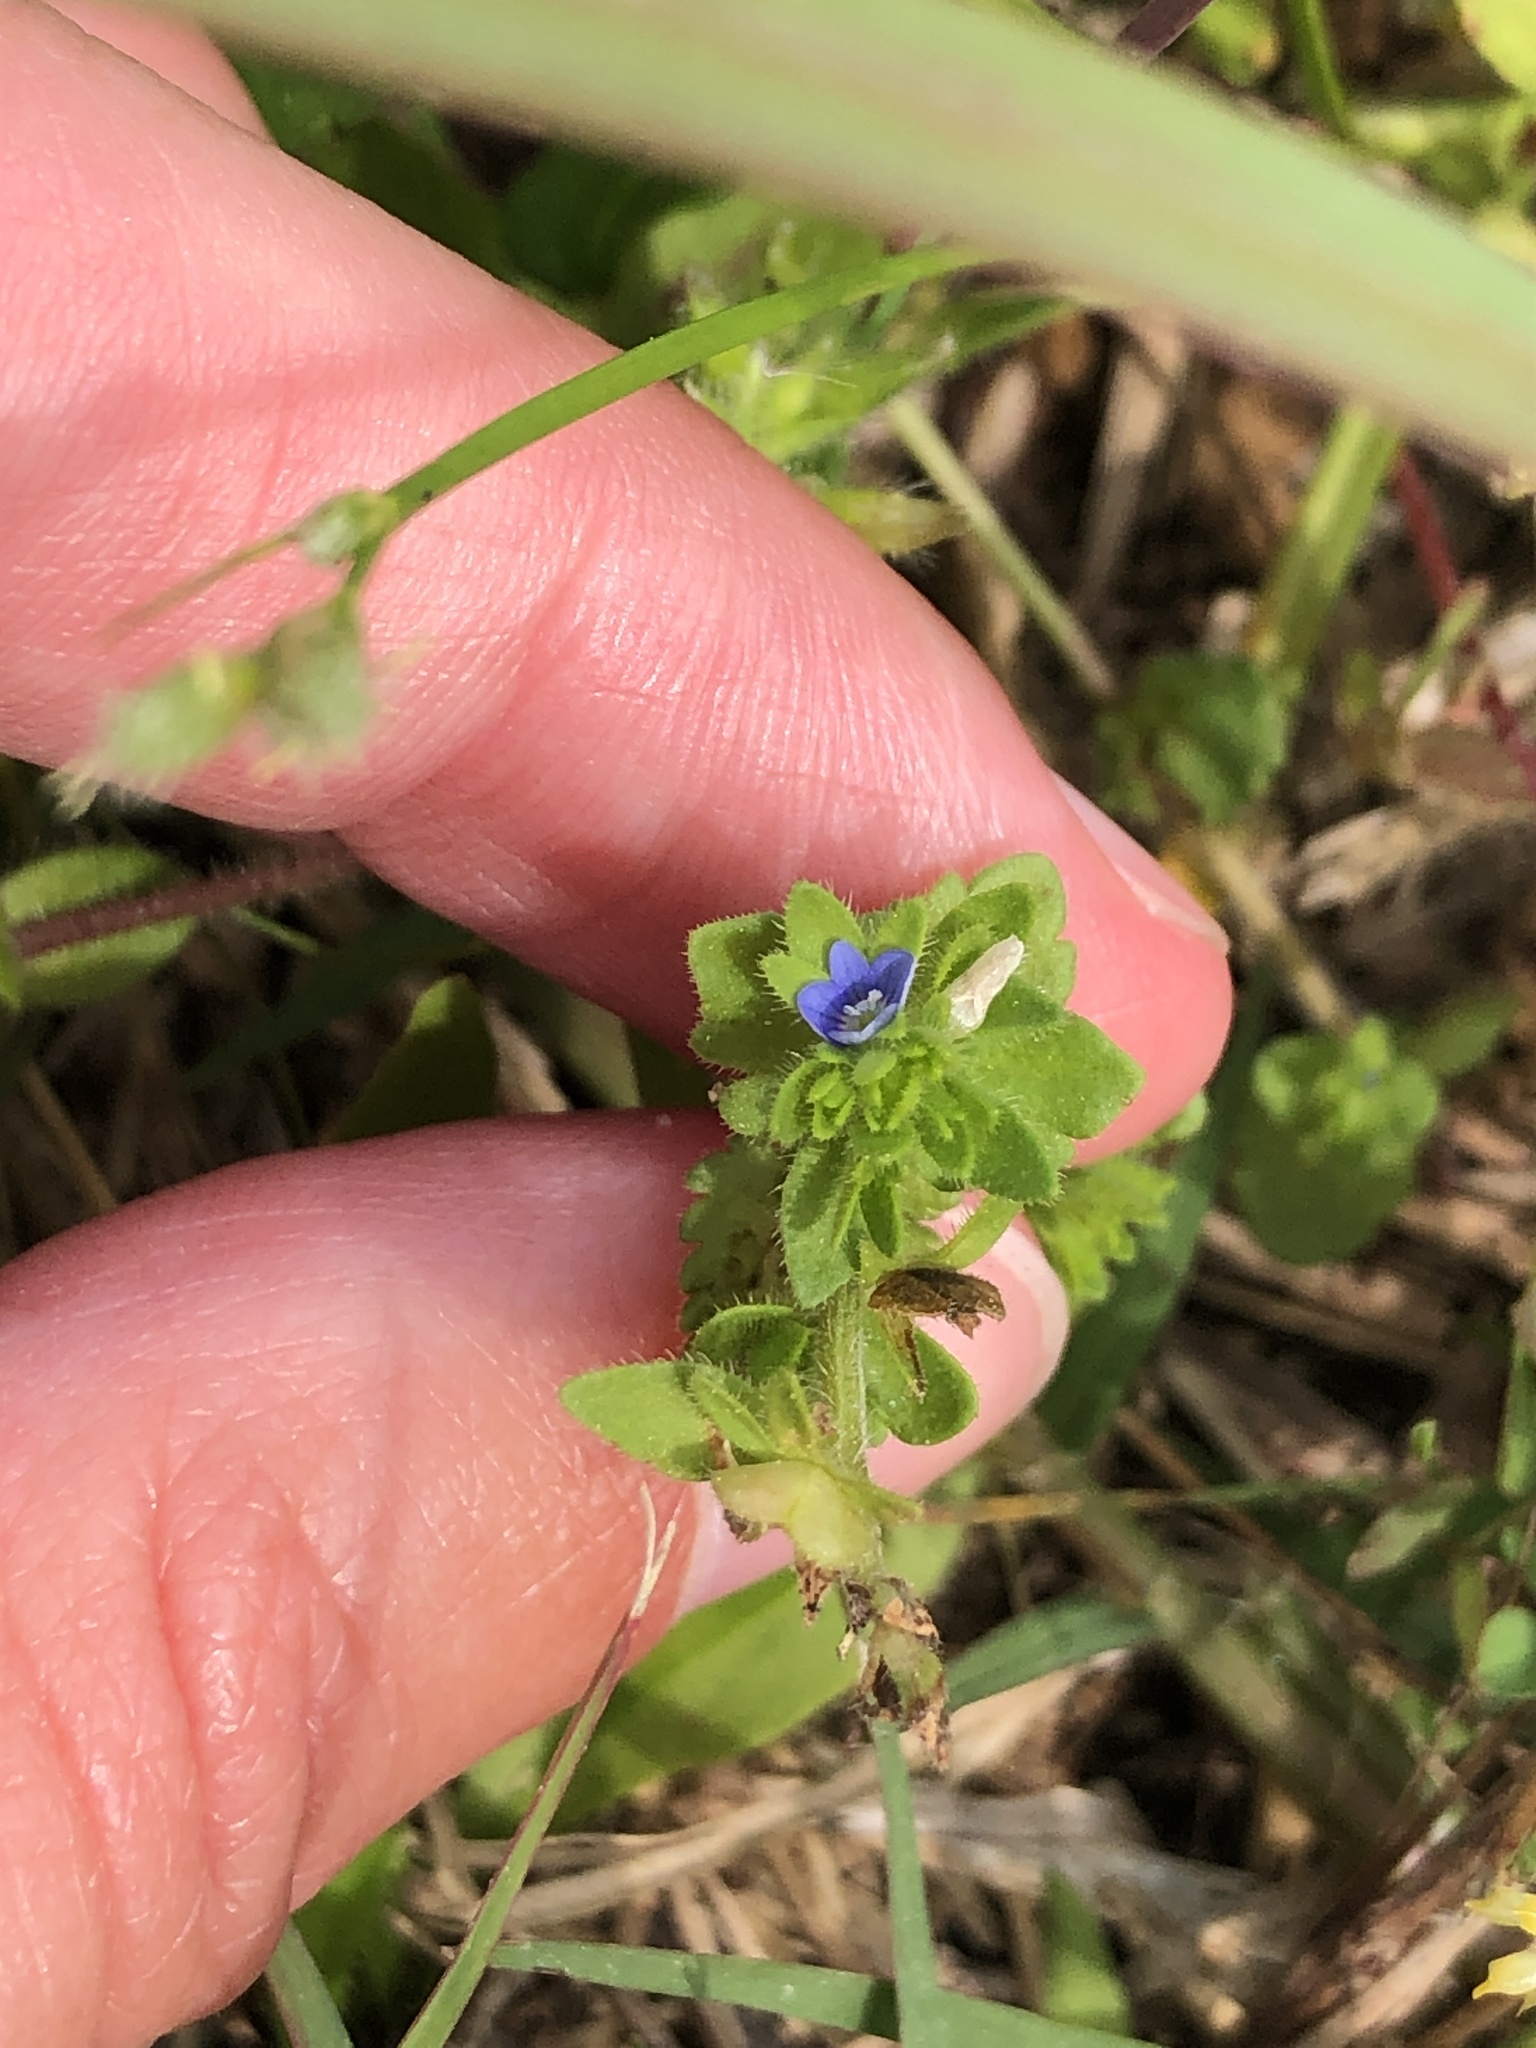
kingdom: Plantae
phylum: Tracheophyta
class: Magnoliopsida
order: Lamiales
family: Plantaginaceae
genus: Veronica
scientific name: Veronica arvensis
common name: Corn speedwell
